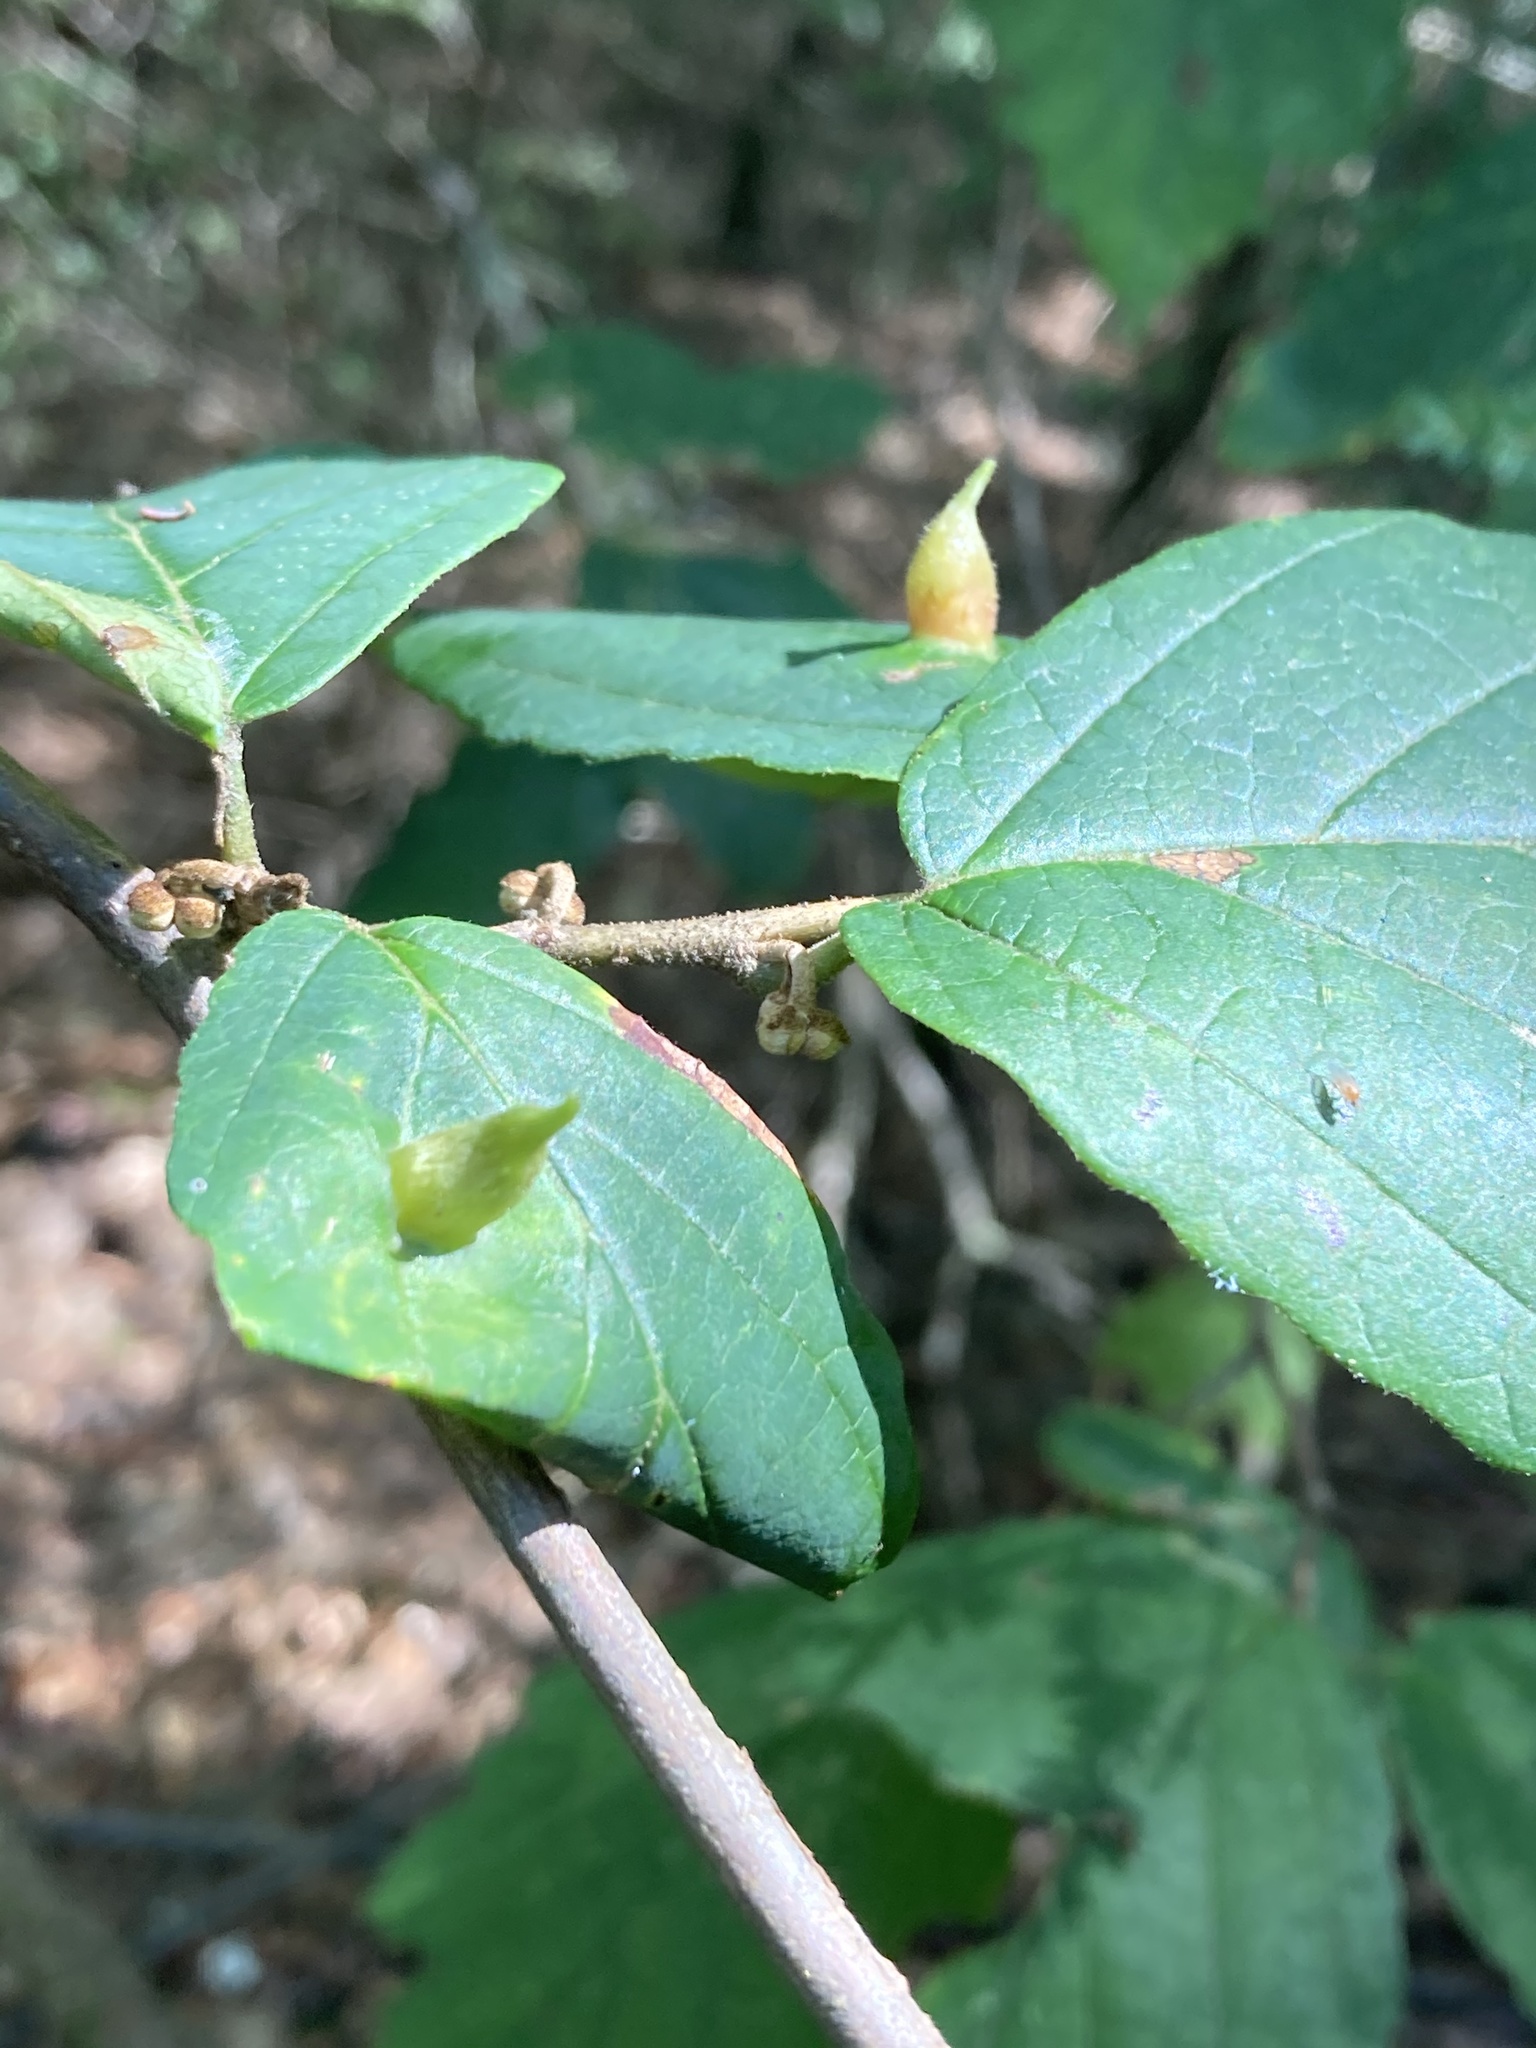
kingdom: Animalia
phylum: Arthropoda
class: Insecta
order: Hemiptera
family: Aphididae
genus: Hormaphis
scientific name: Hormaphis hamamelidis
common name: Witch-hazel cone gall aphid
